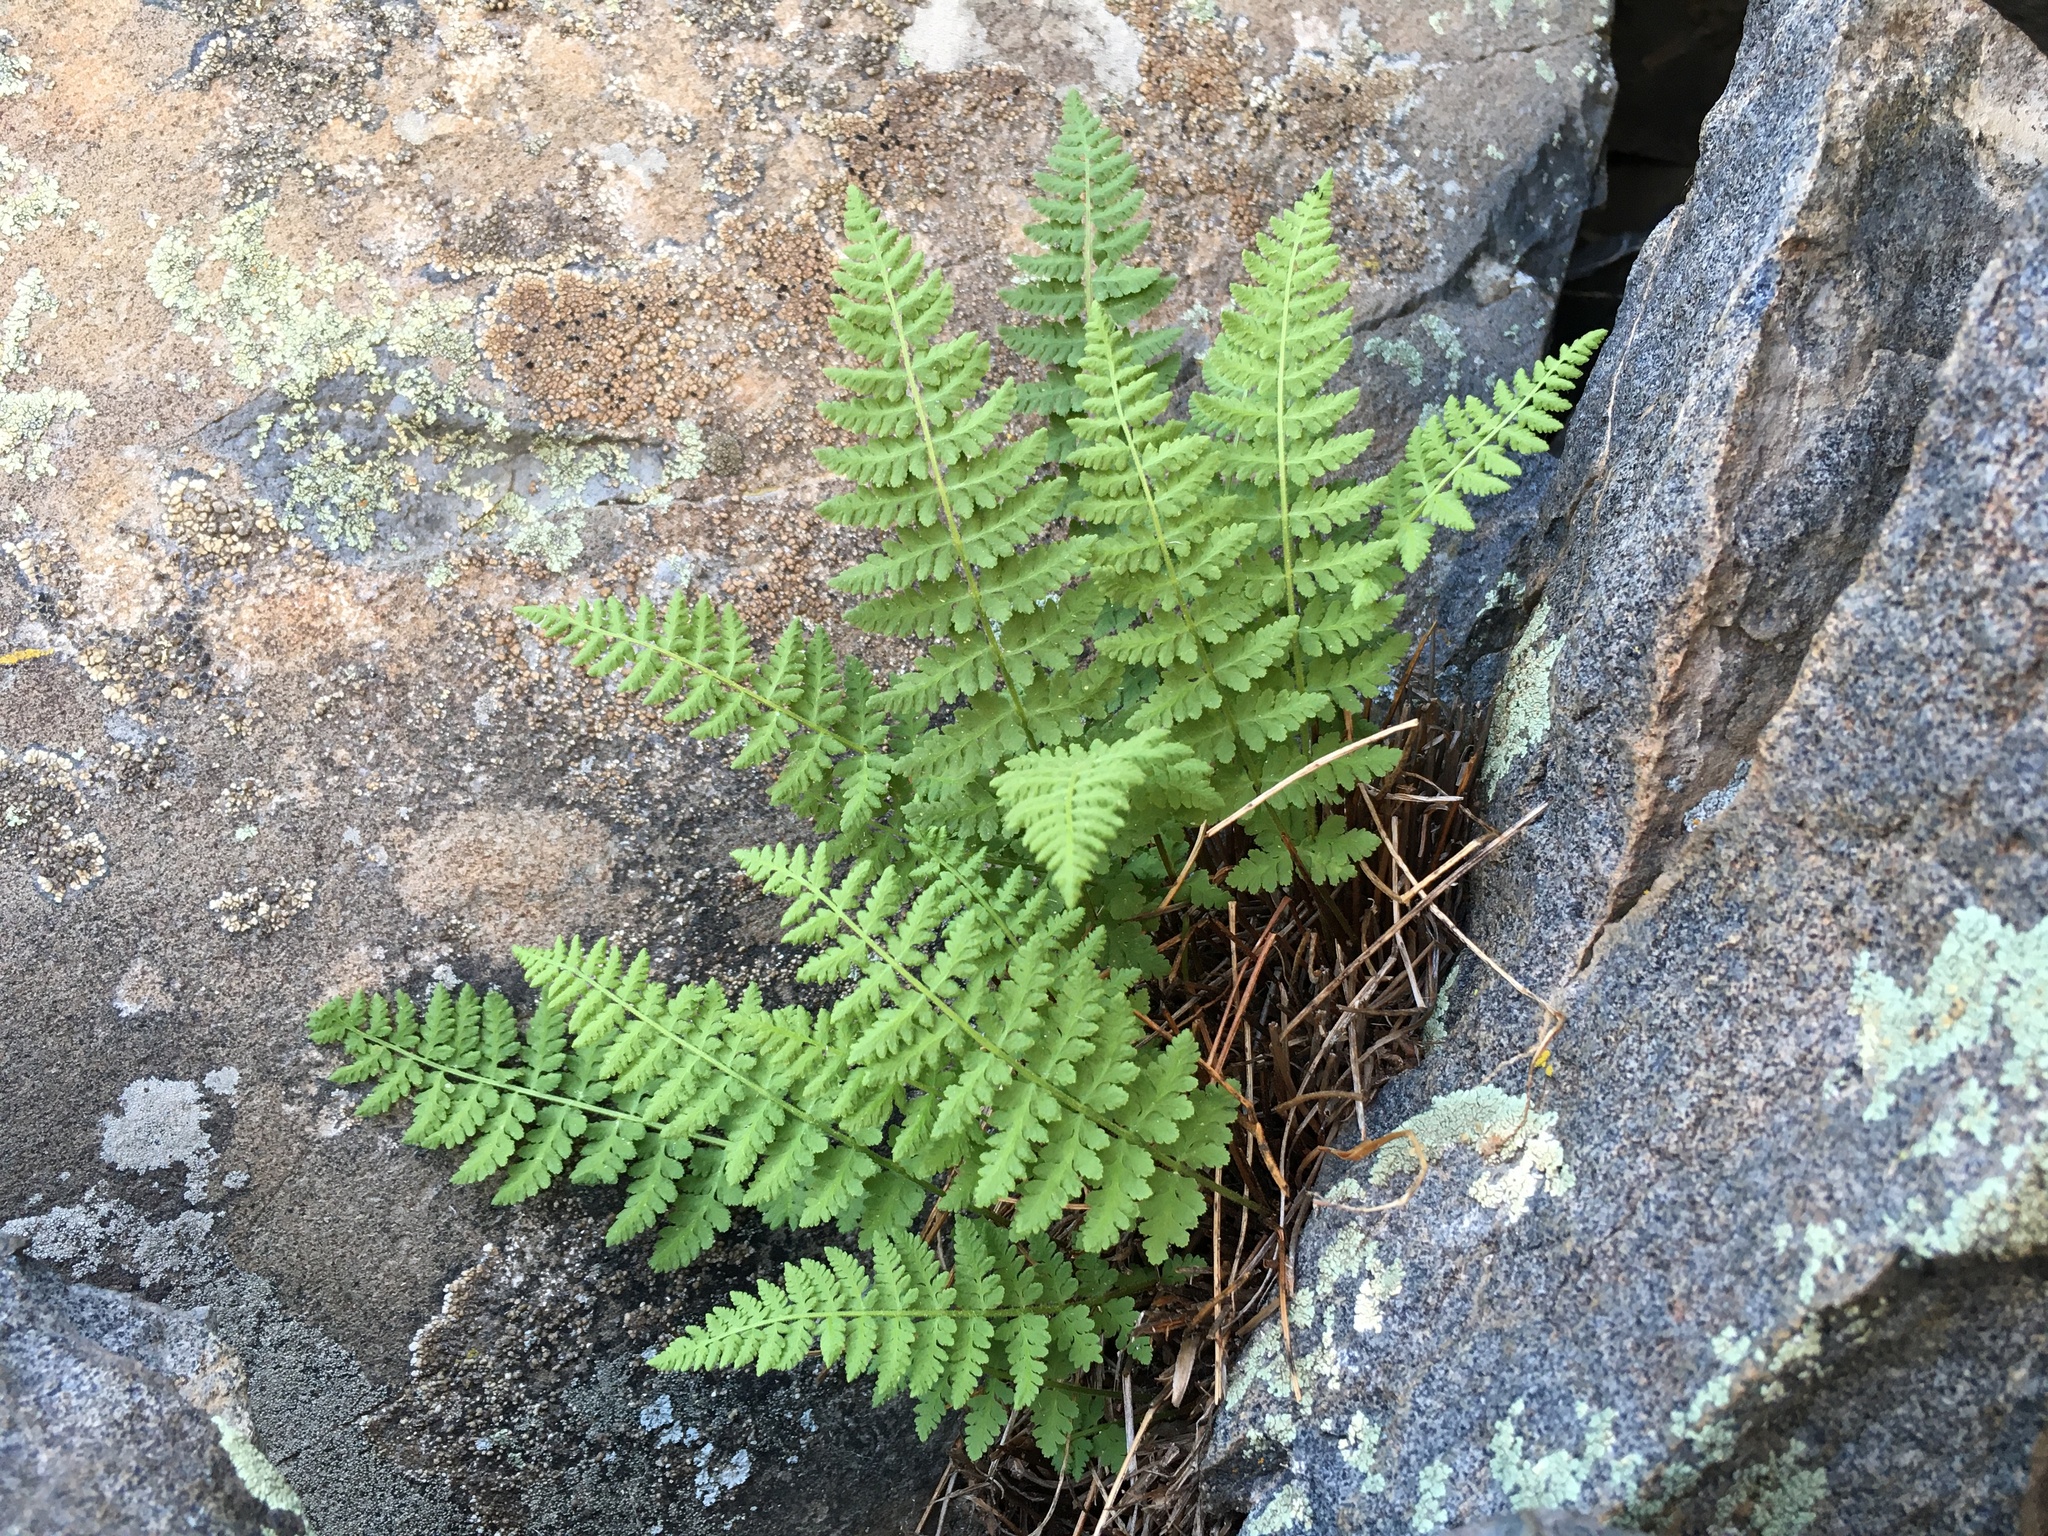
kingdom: Plantae
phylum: Tracheophyta
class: Polypodiopsida
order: Polypodiales
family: Woodsiaceae
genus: Physematium
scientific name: Physematium scopulinum
